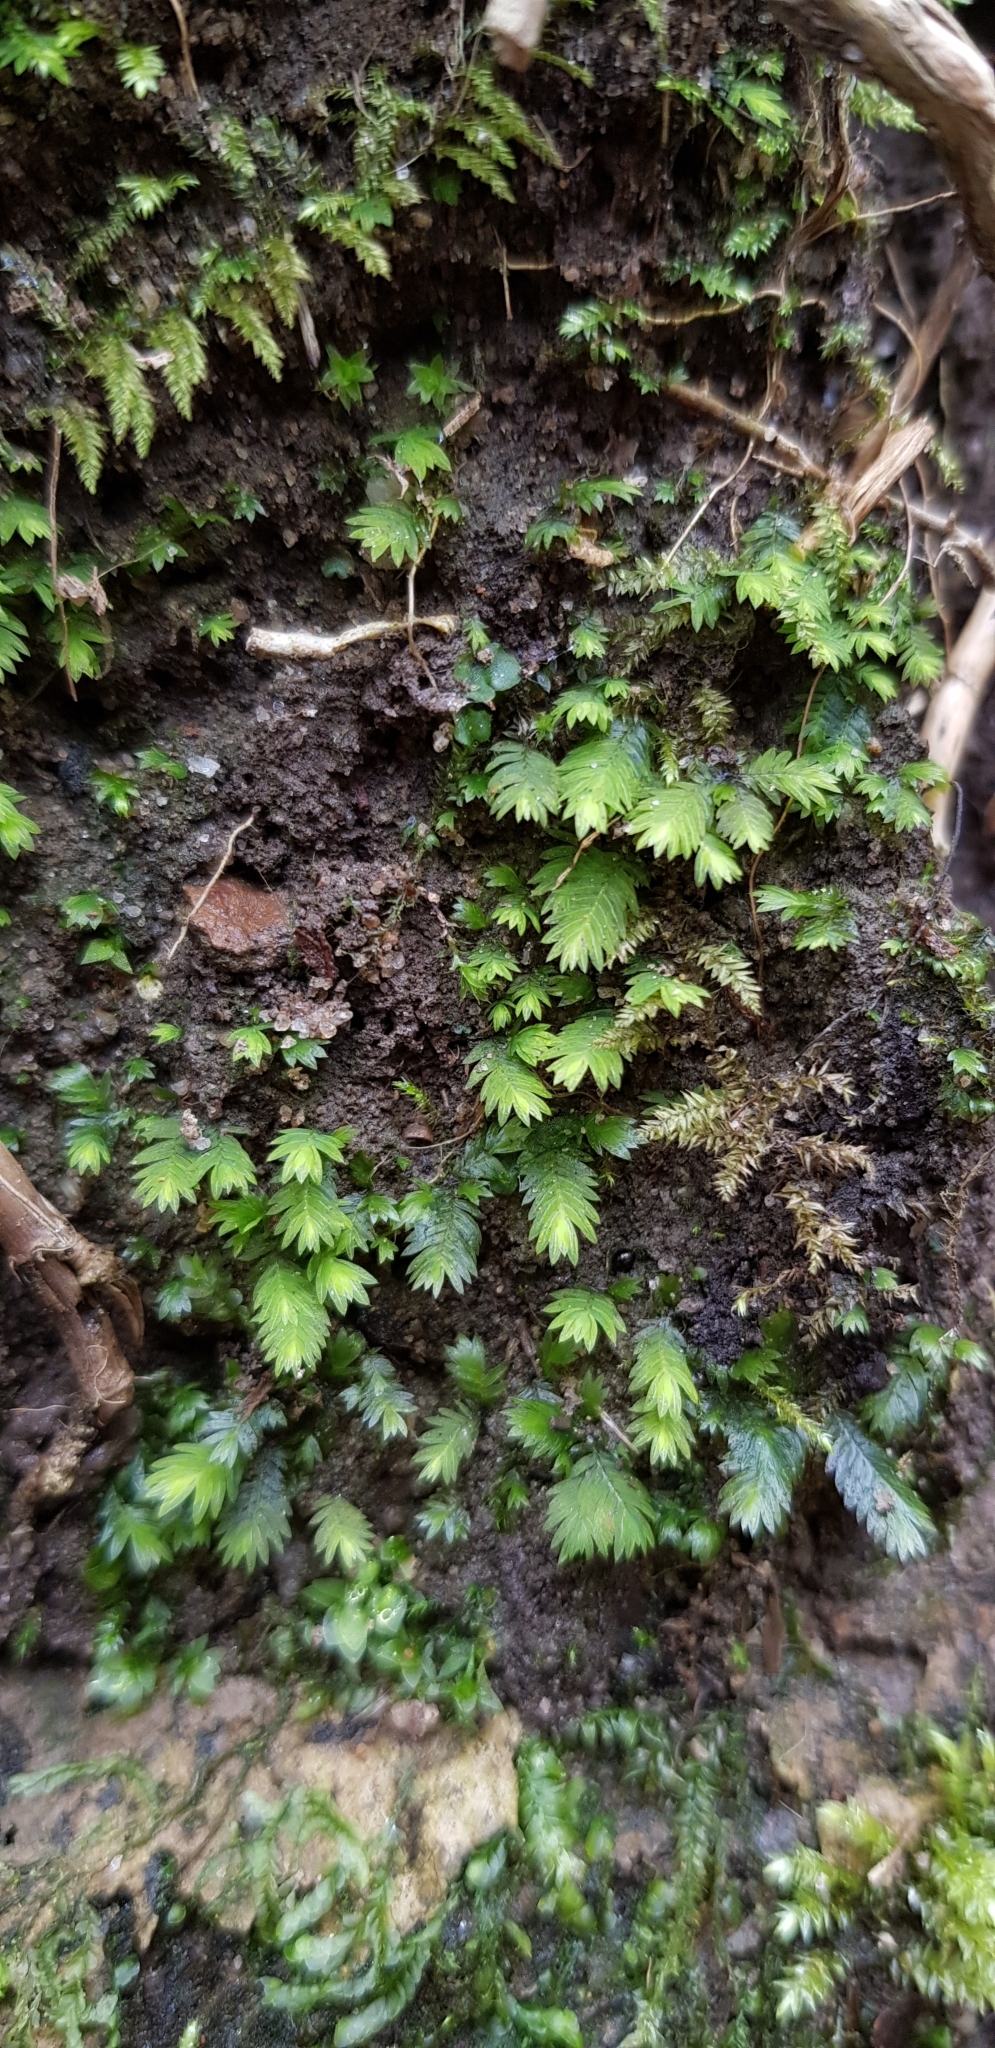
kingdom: Plantae
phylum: Bryophyta
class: Bryopsida
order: Dicranales
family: Fissidentaceae
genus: Fissidens
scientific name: Fissidens taxifolius
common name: Yew-leaved pocket moss
